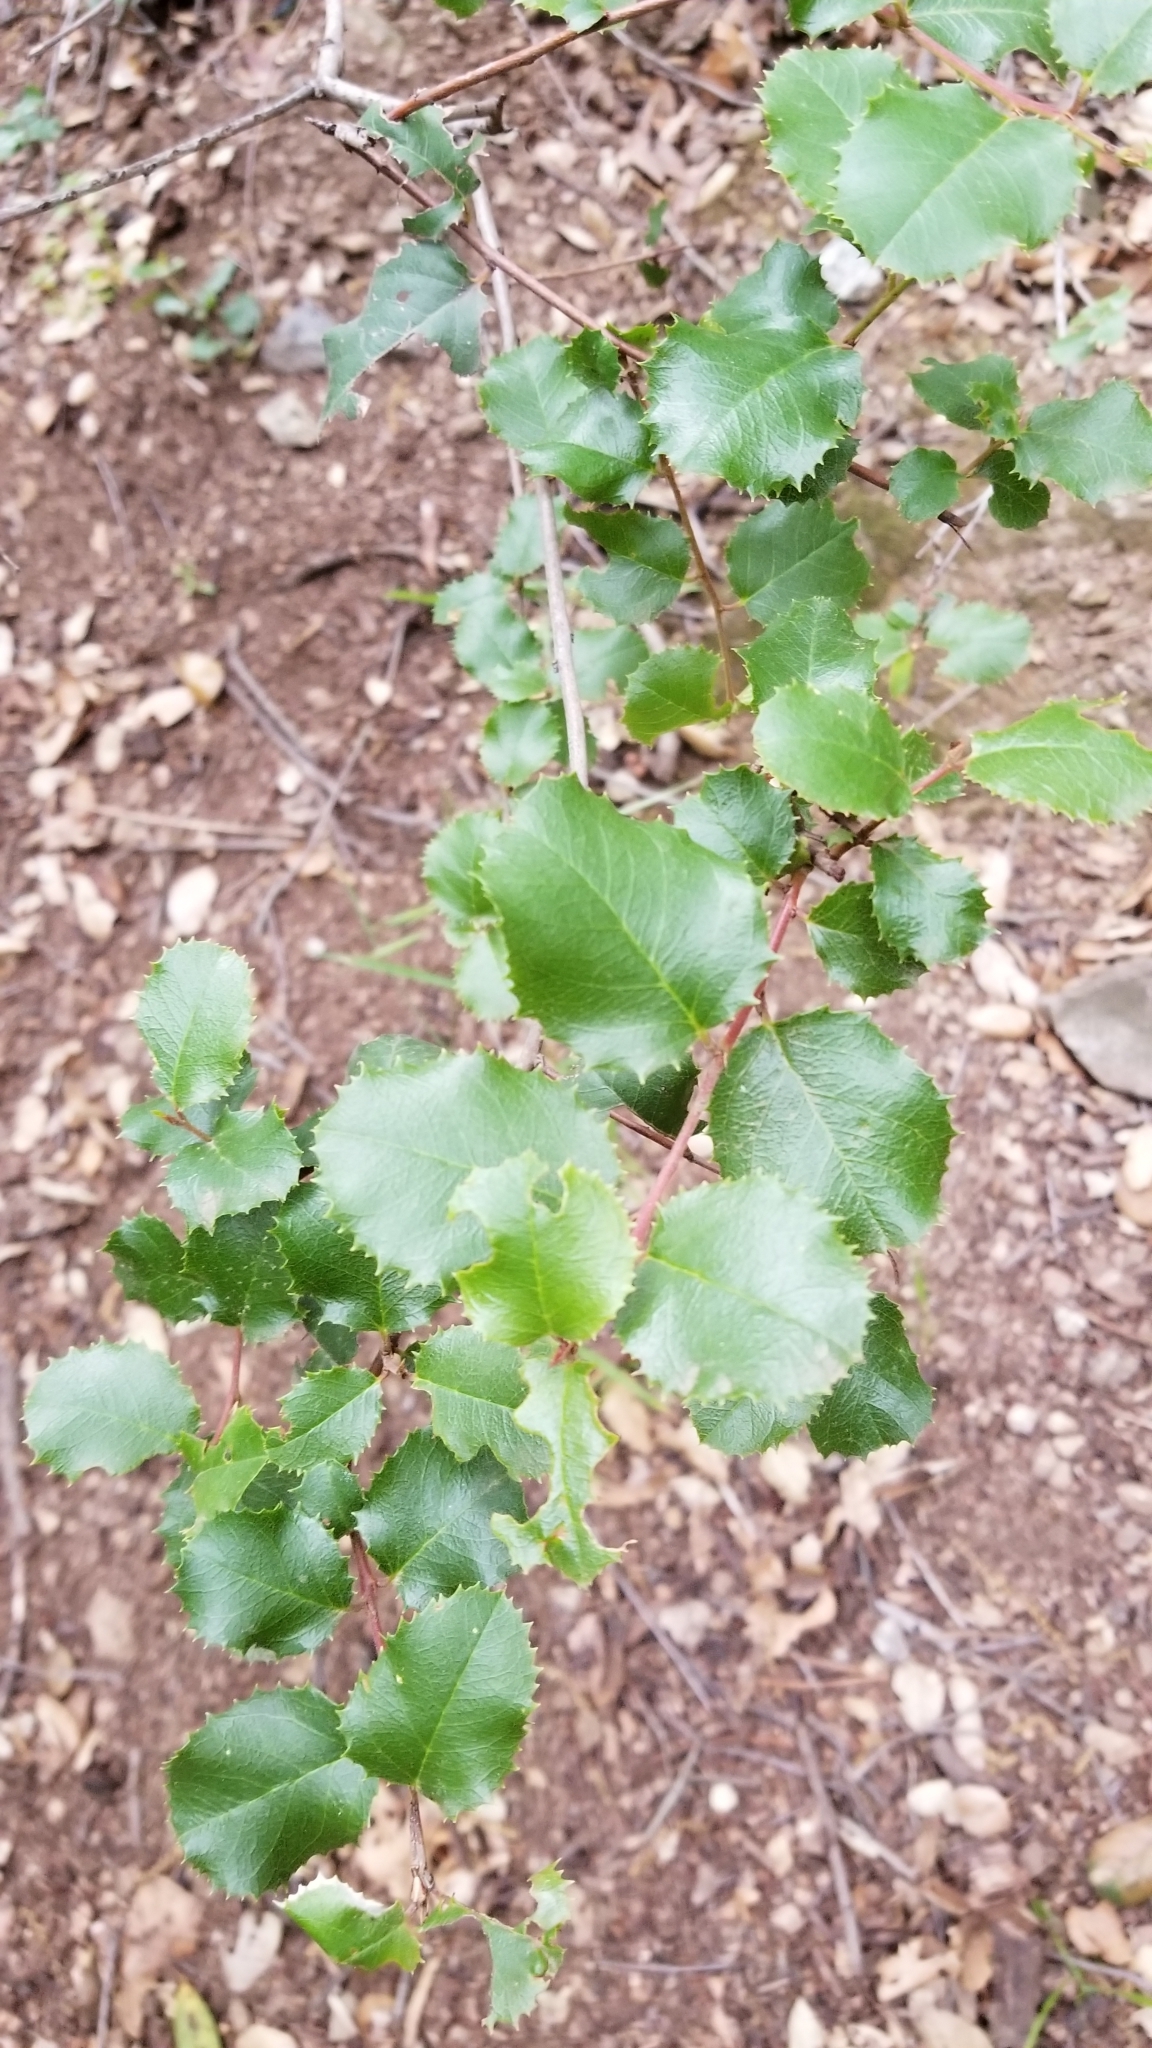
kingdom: Plantae
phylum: Tracheophyta
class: Magnoliopsida
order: Rosales
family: Rosaceae
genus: Prunus
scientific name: Prunus ilicifolia
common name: Hollyleaf cherry
